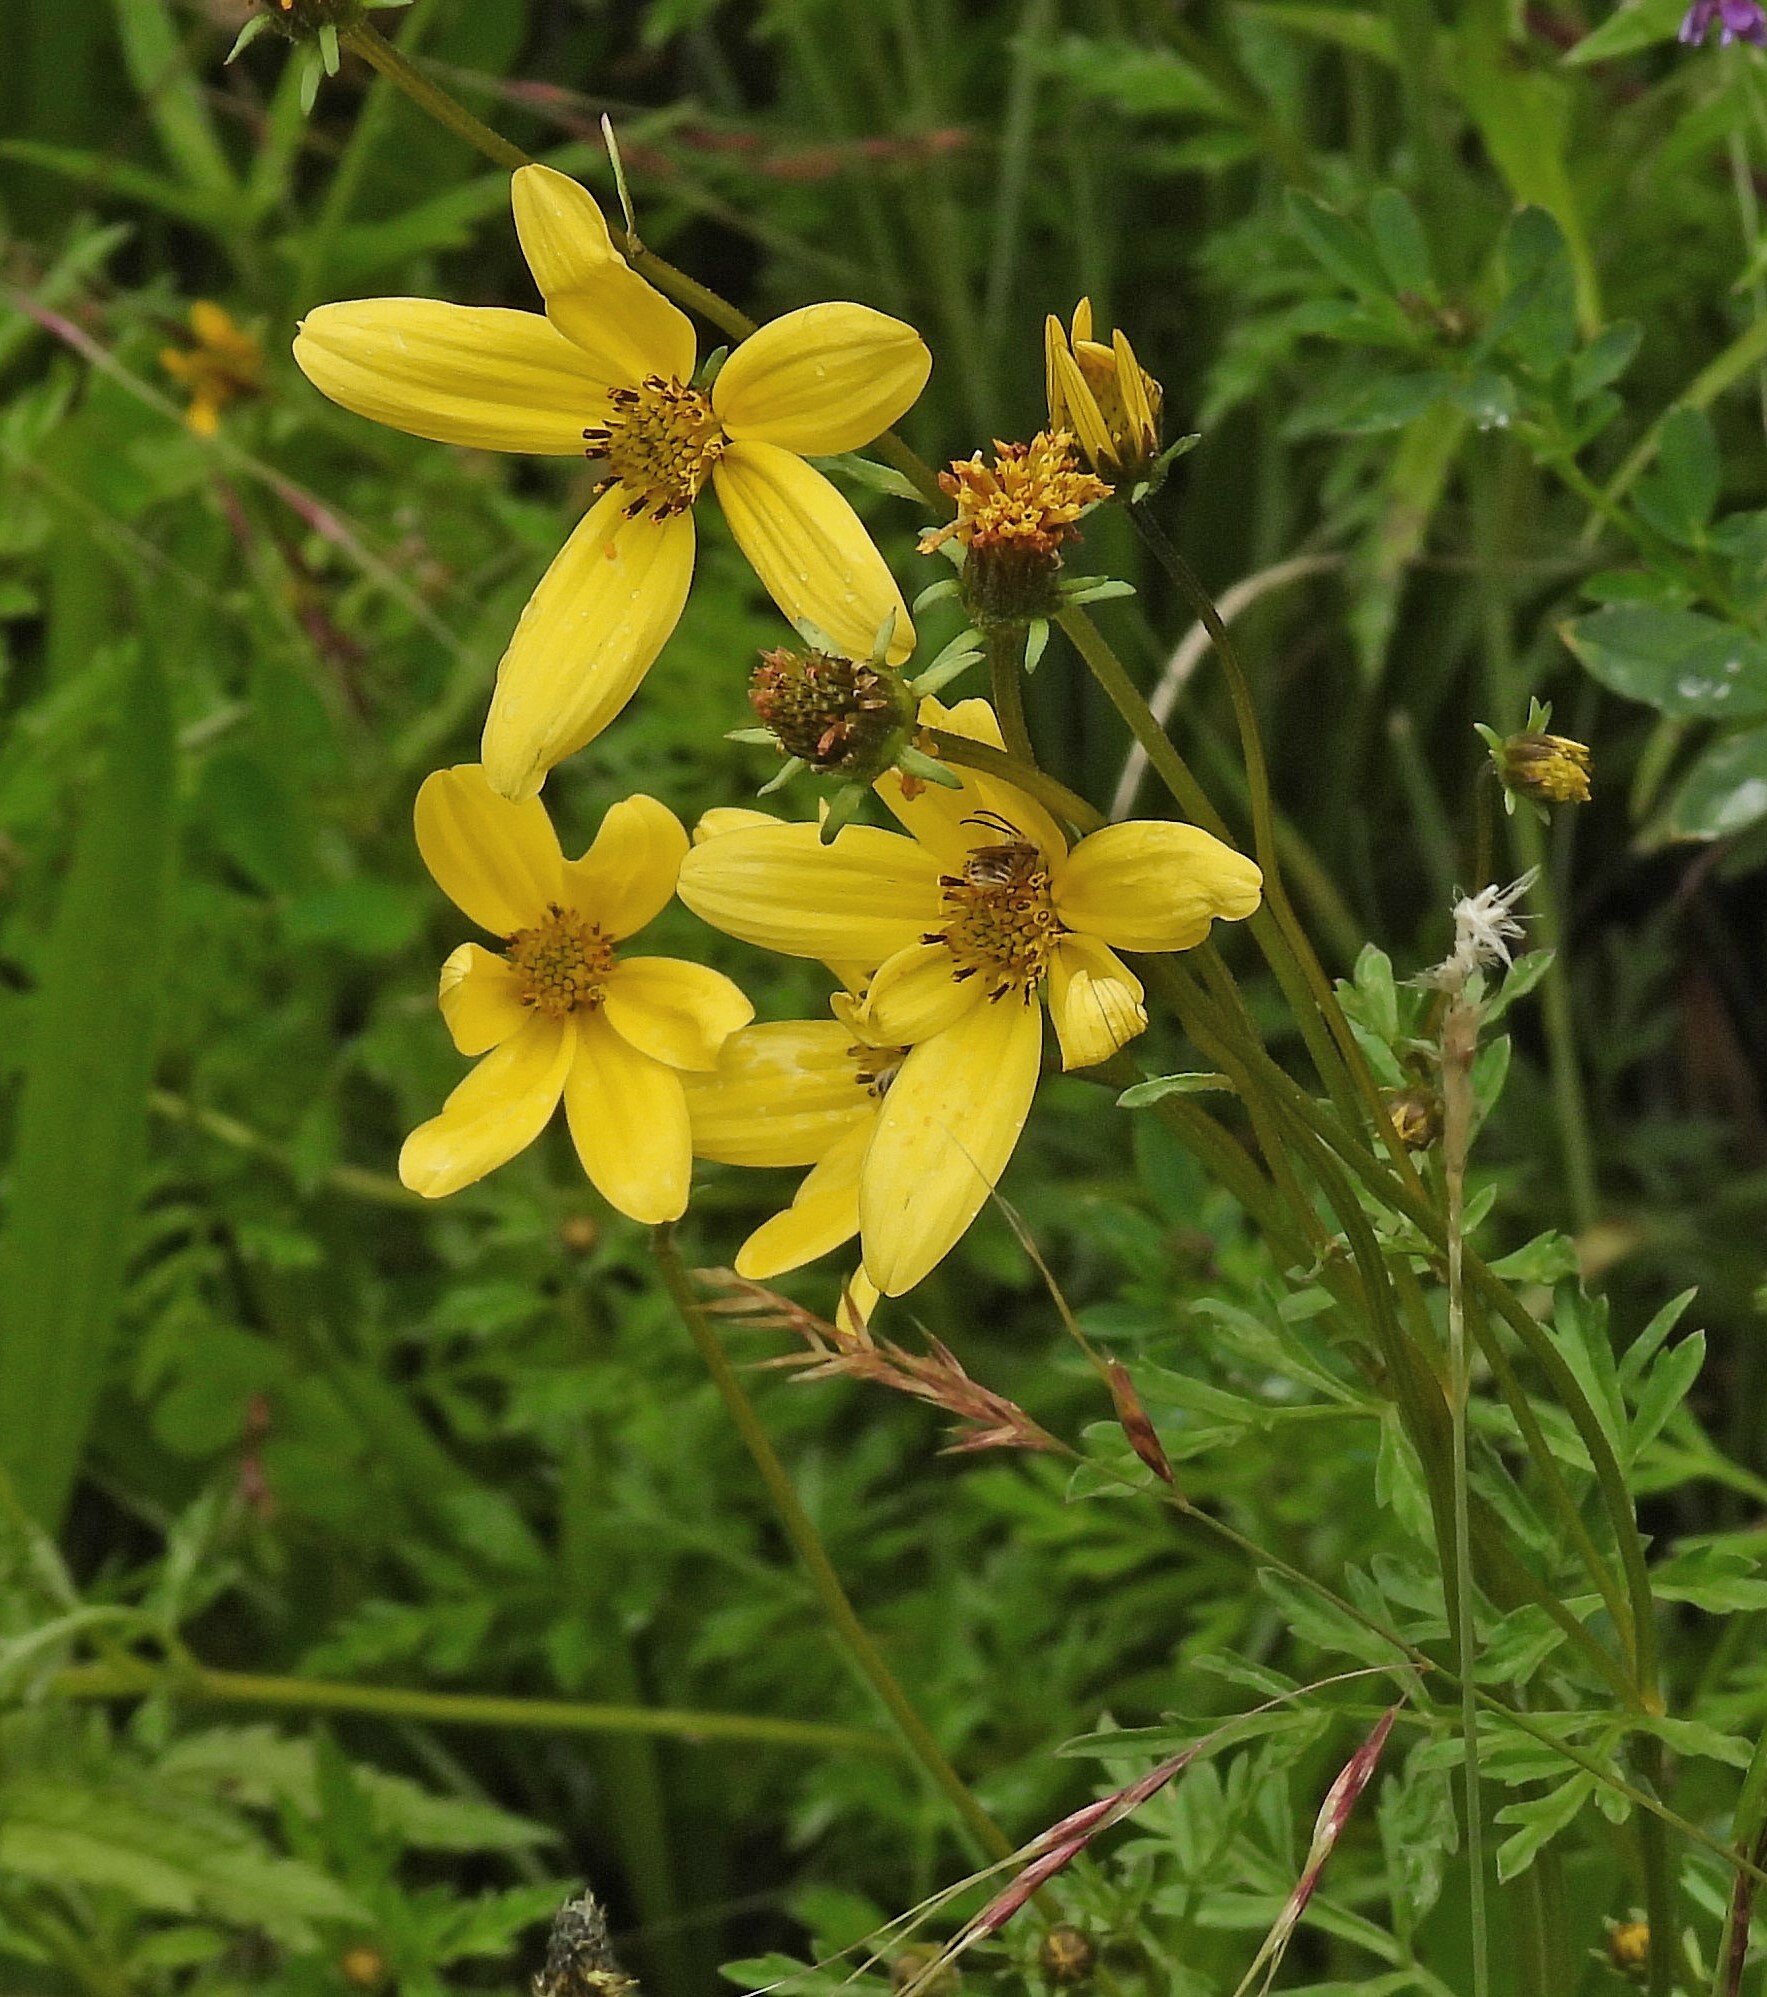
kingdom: Plantae
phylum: Tracheophyta
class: Magnoliopsida
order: Asterales
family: Asteraceae
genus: Bidens
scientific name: Bidens andicola
